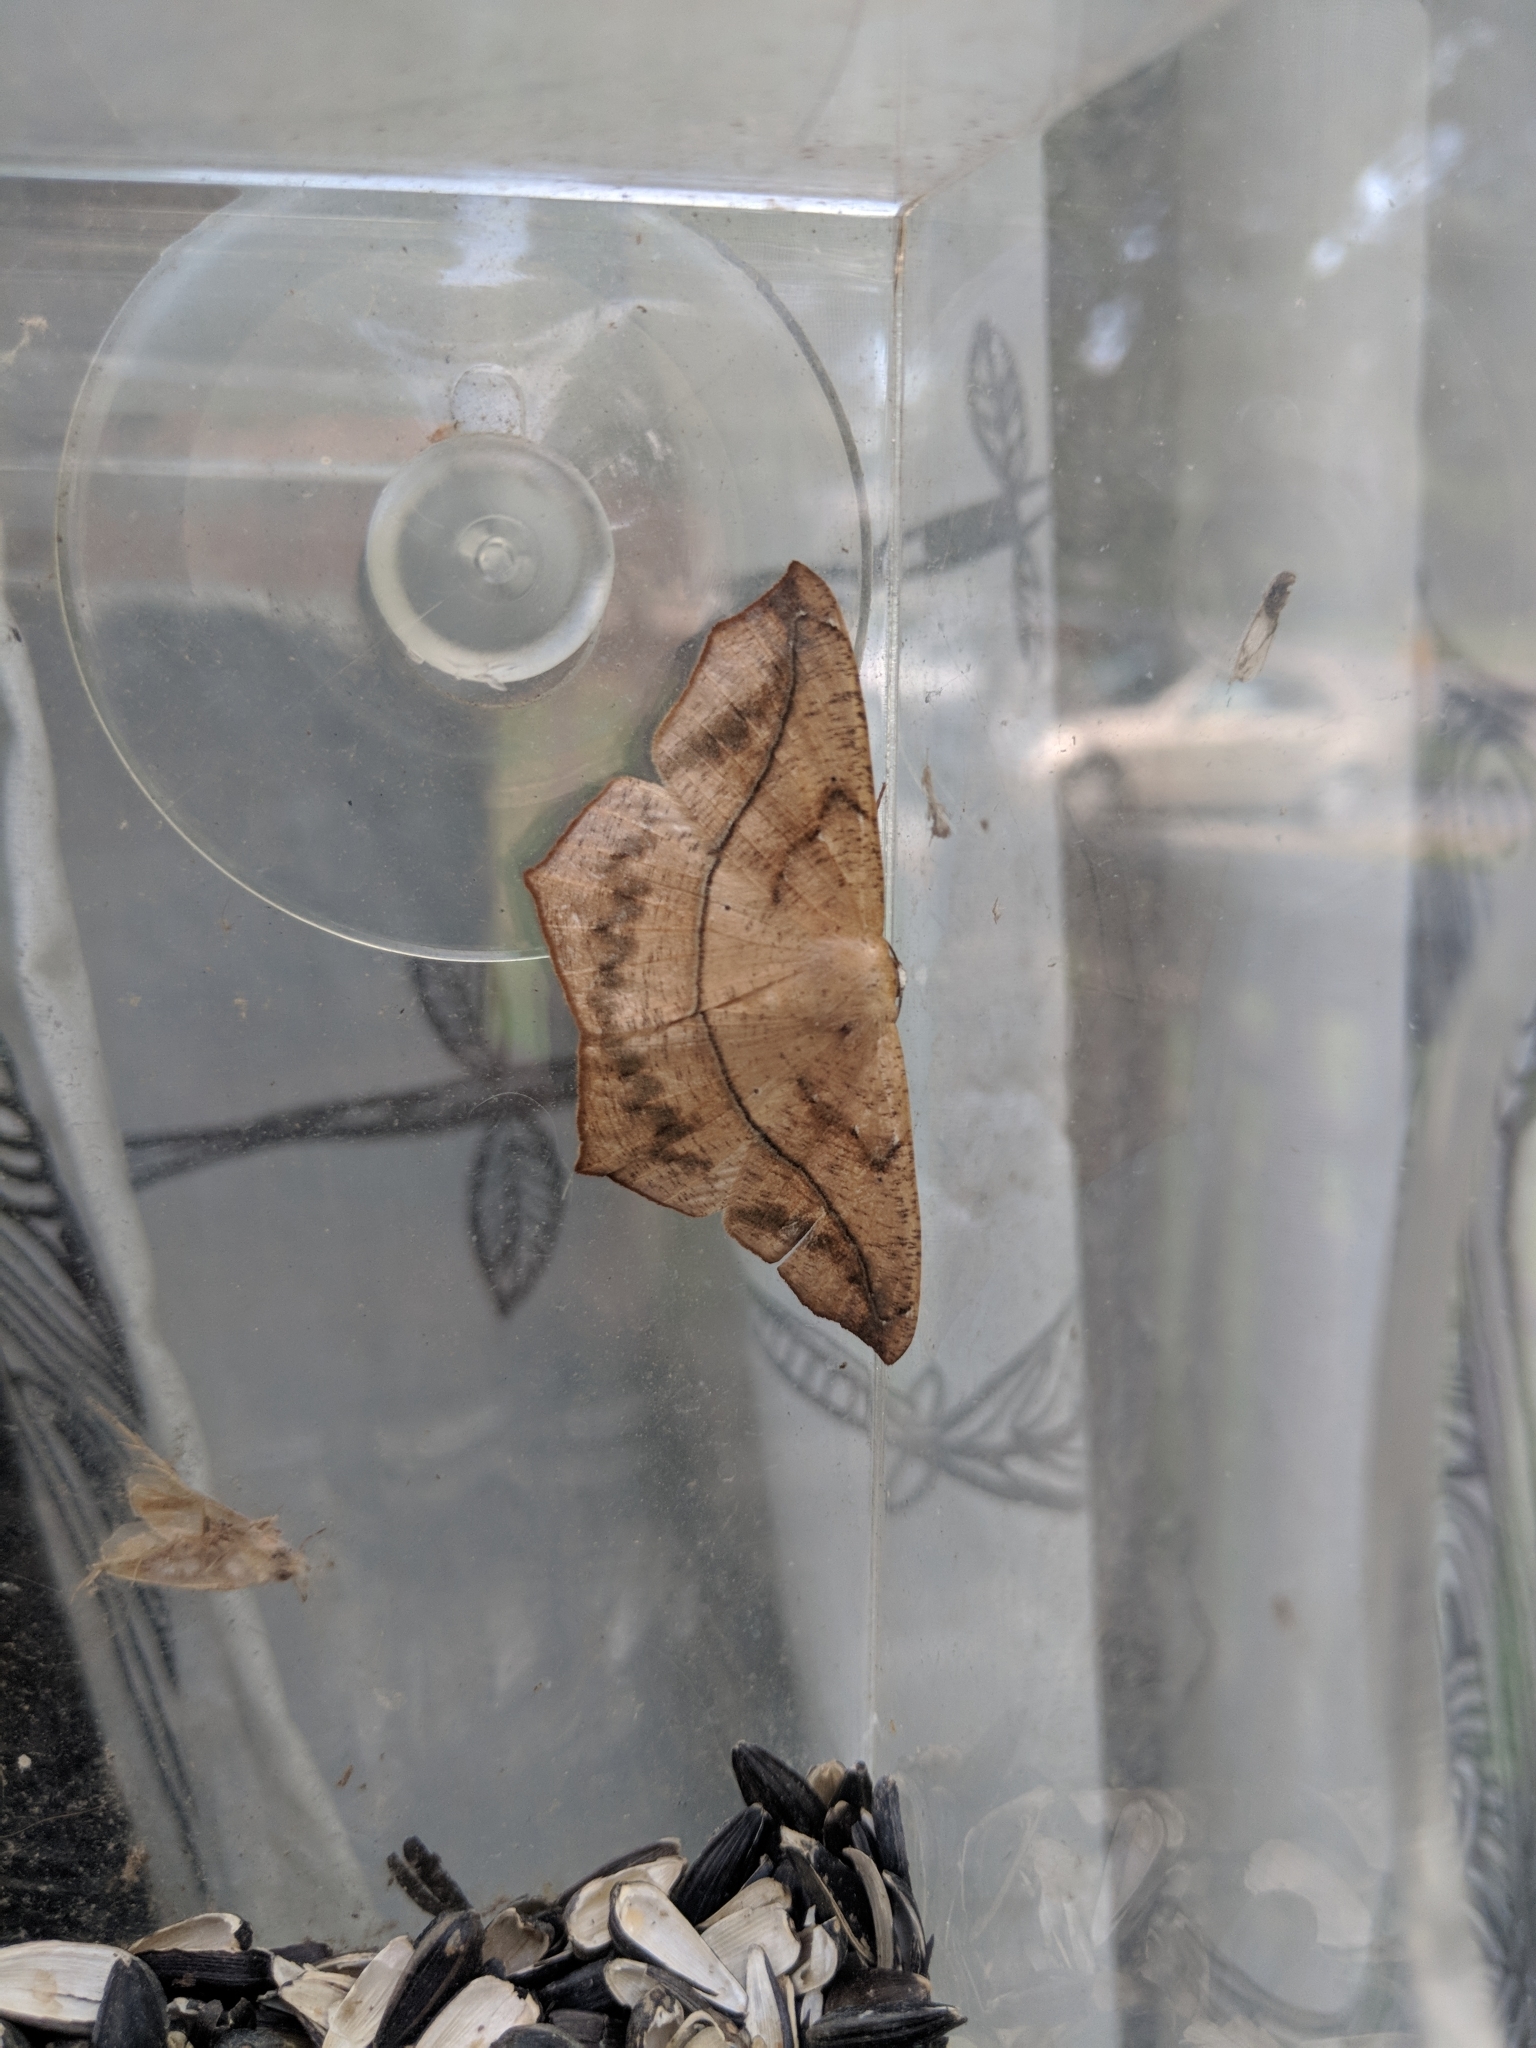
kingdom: Animalia
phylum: Arthropoda
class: Insecta
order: Lepidoptera
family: Geometridae
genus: Prochoerodes
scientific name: Prochoerodes lineola
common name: Large maple spanworm
